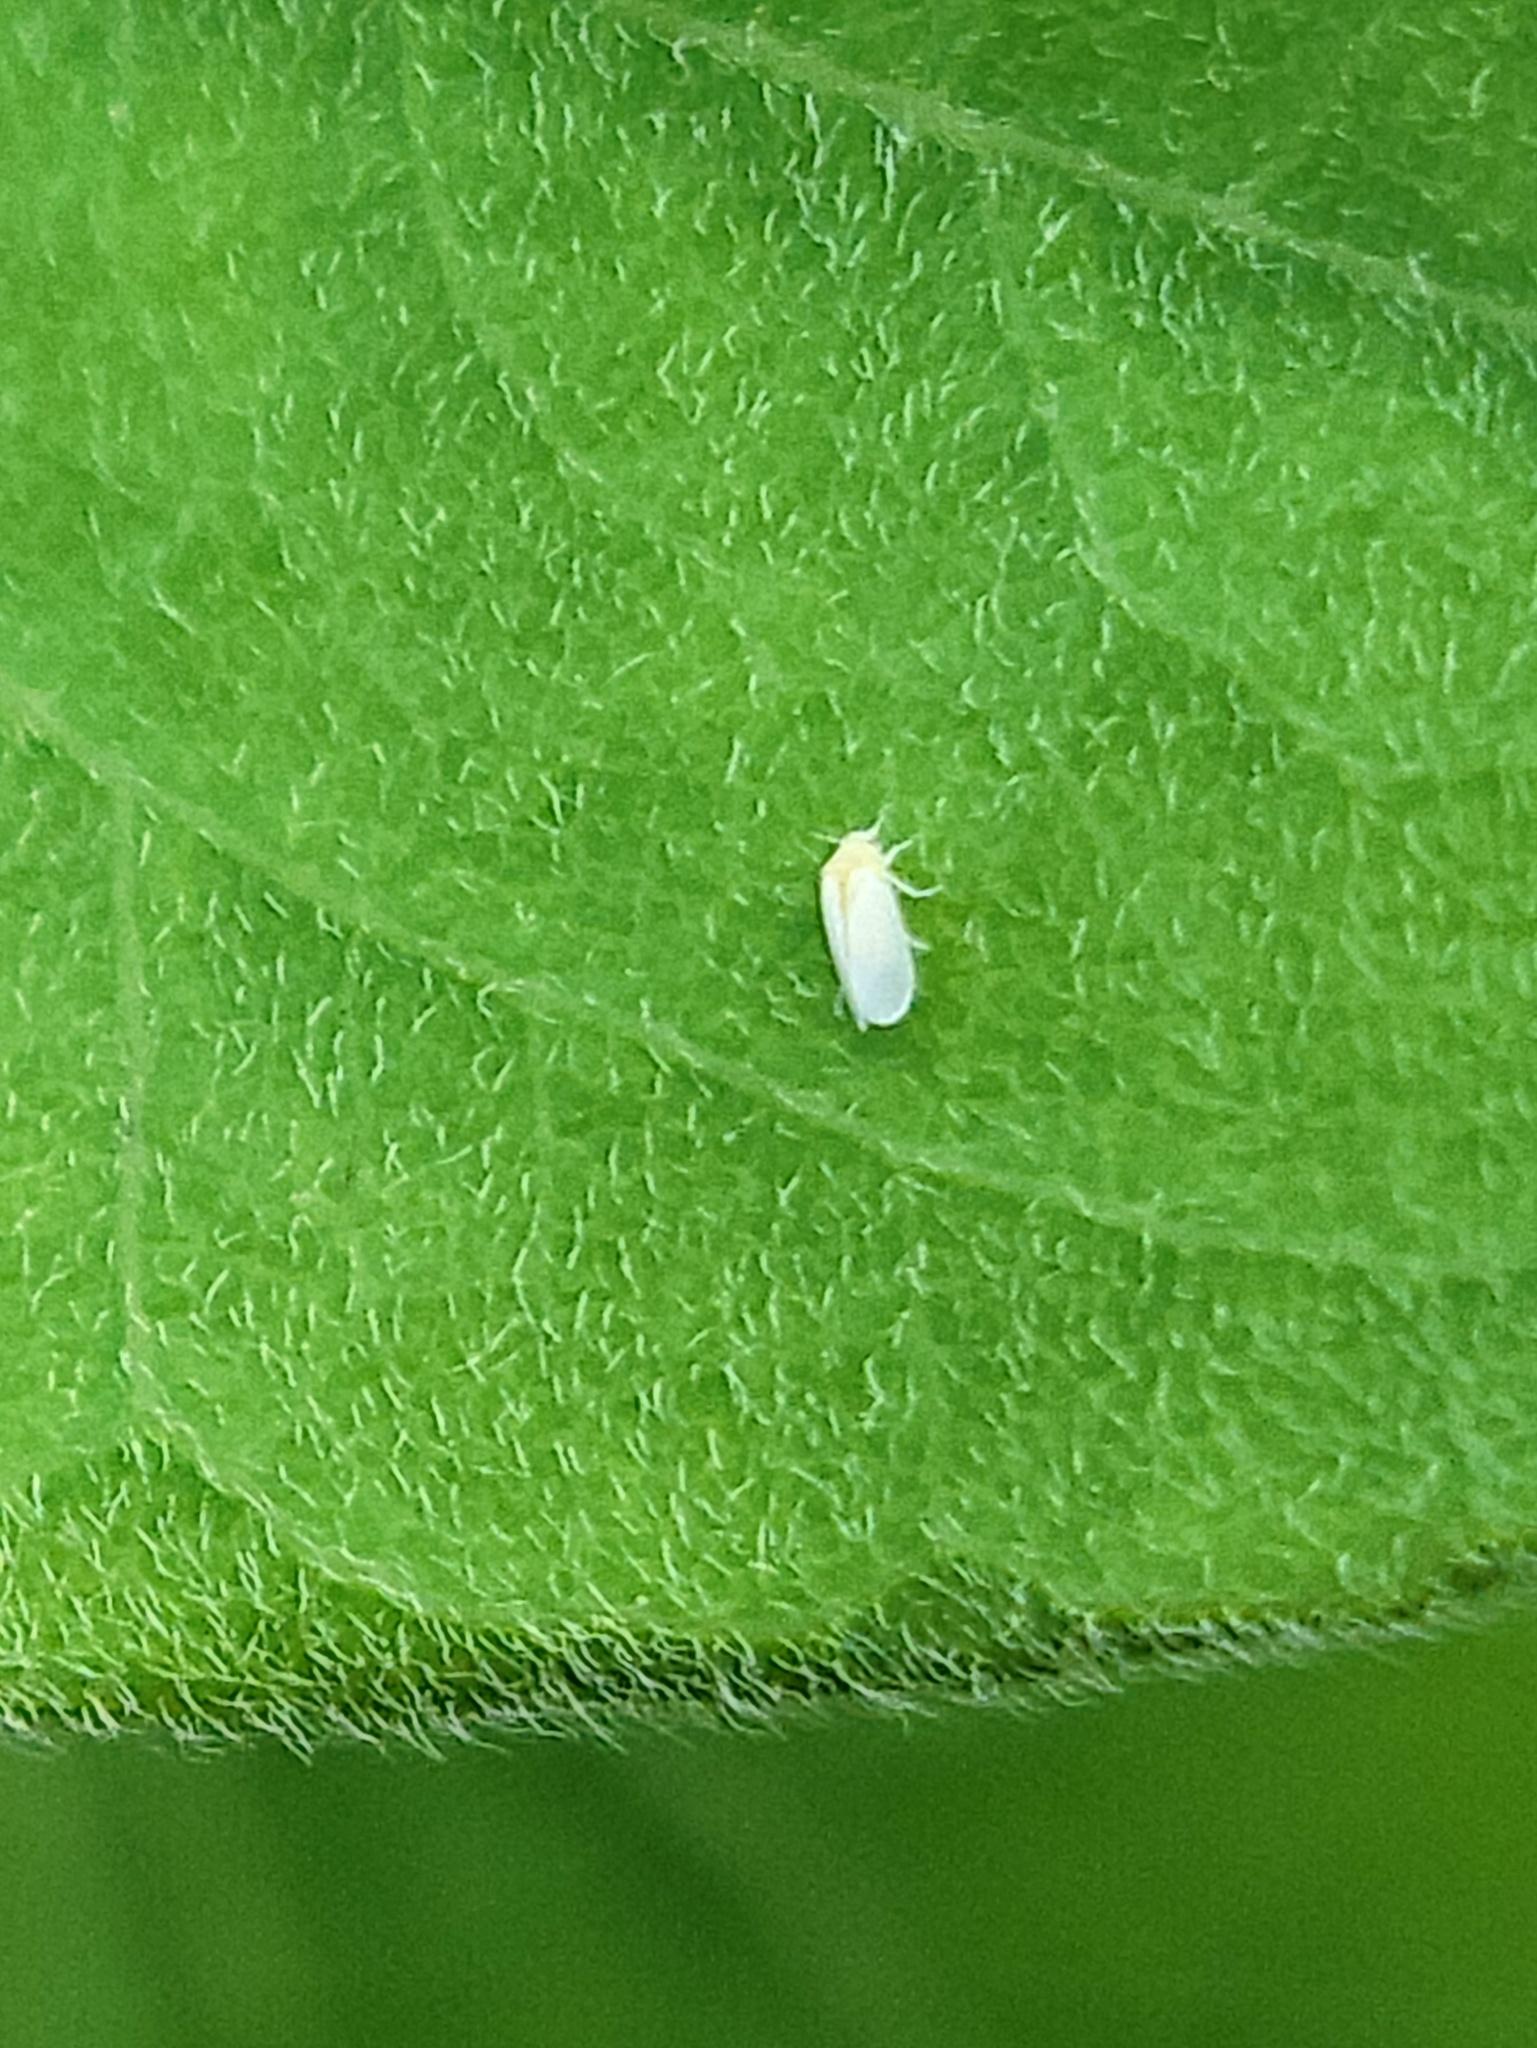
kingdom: Animalia
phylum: Arthropoda
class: Insecta
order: Hemiptera
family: Aleyrodidae
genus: Bemisia
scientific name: Bemisia tabaci
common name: Sweetpotato whitefly
